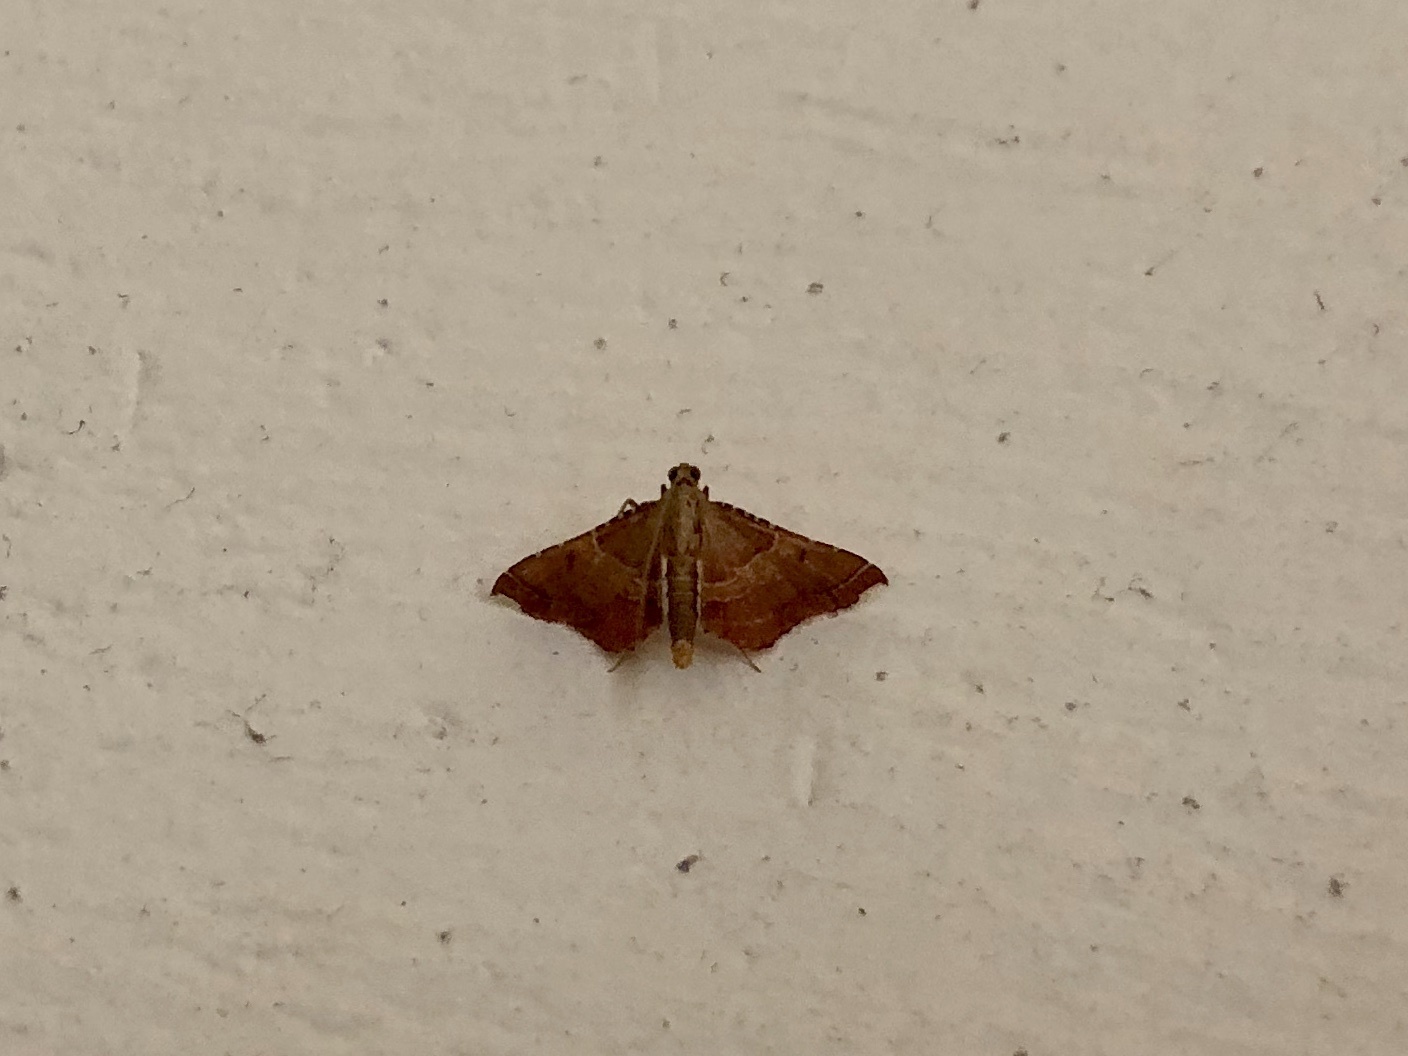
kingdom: Animalia
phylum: Arthropoda
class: Insecta
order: Lepidoptera
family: Pyralidae
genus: Endotricha
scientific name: Endotricha flammealis
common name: Rosy tabby
